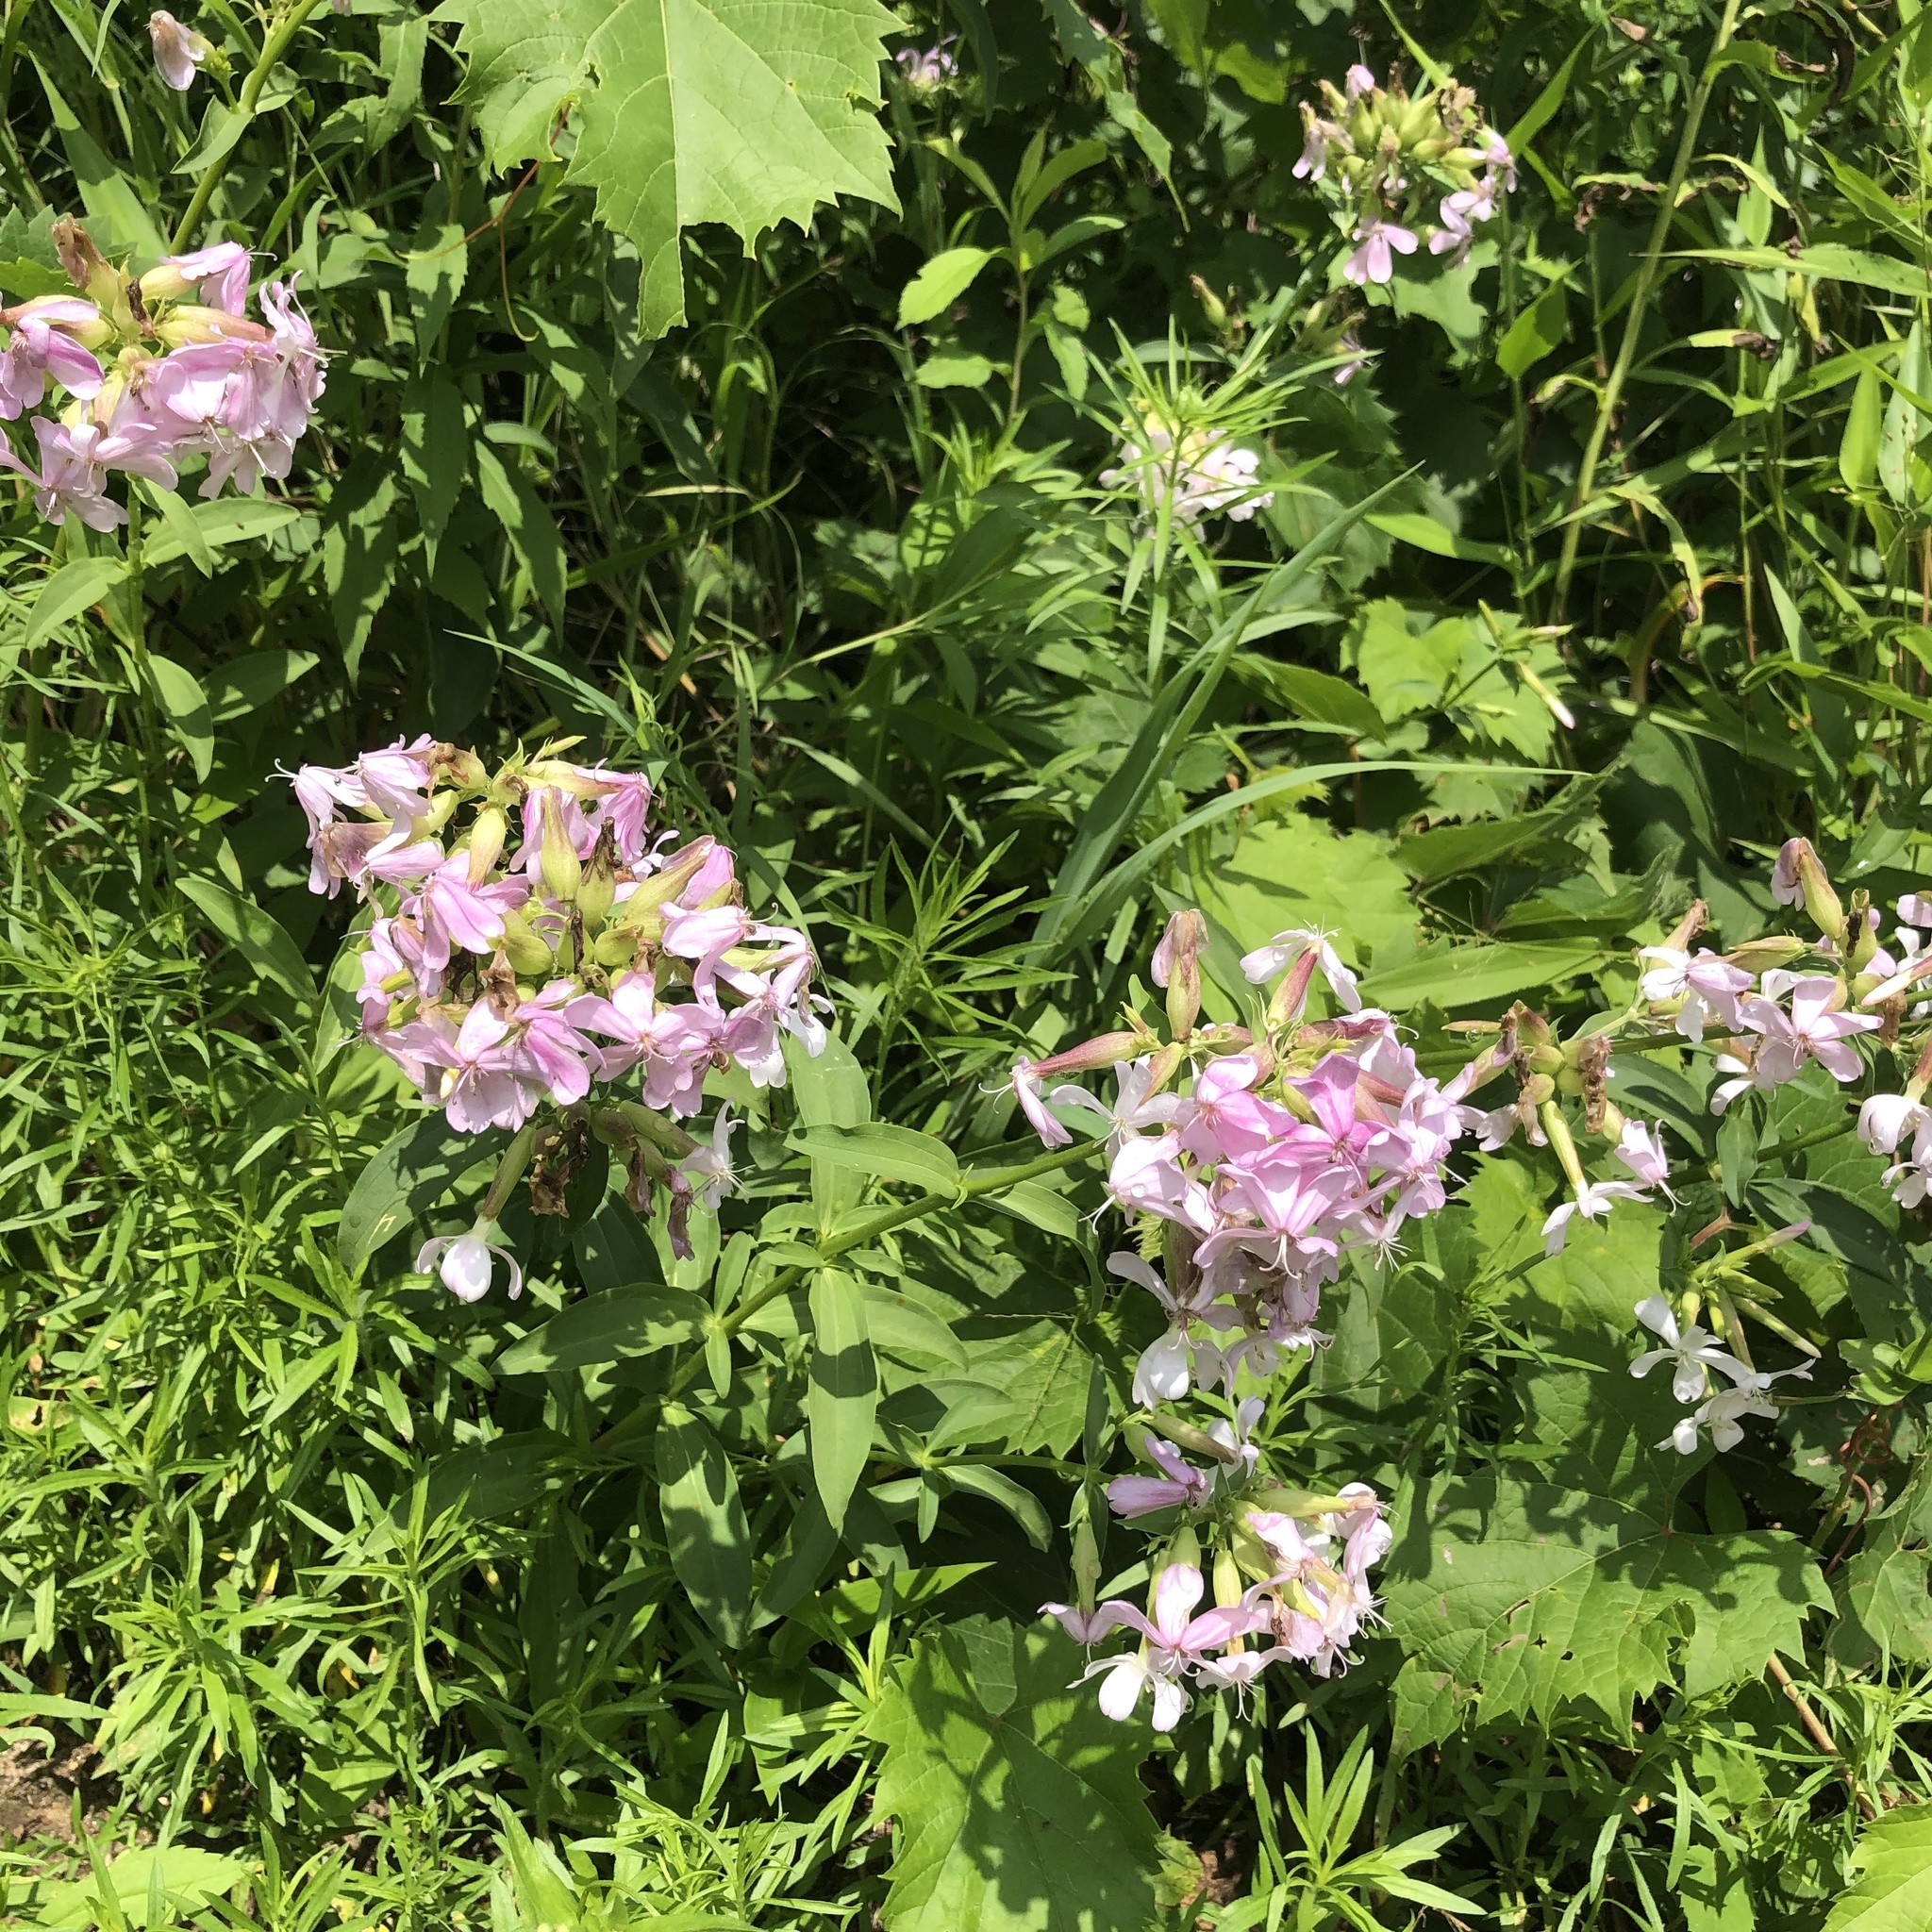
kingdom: Plantae
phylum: Tracheophyta
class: Magnoliopsida
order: Caryophyllales
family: Caryophyllaceae
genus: Saponaria
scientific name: Saponaria officinalis
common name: Soapwort
